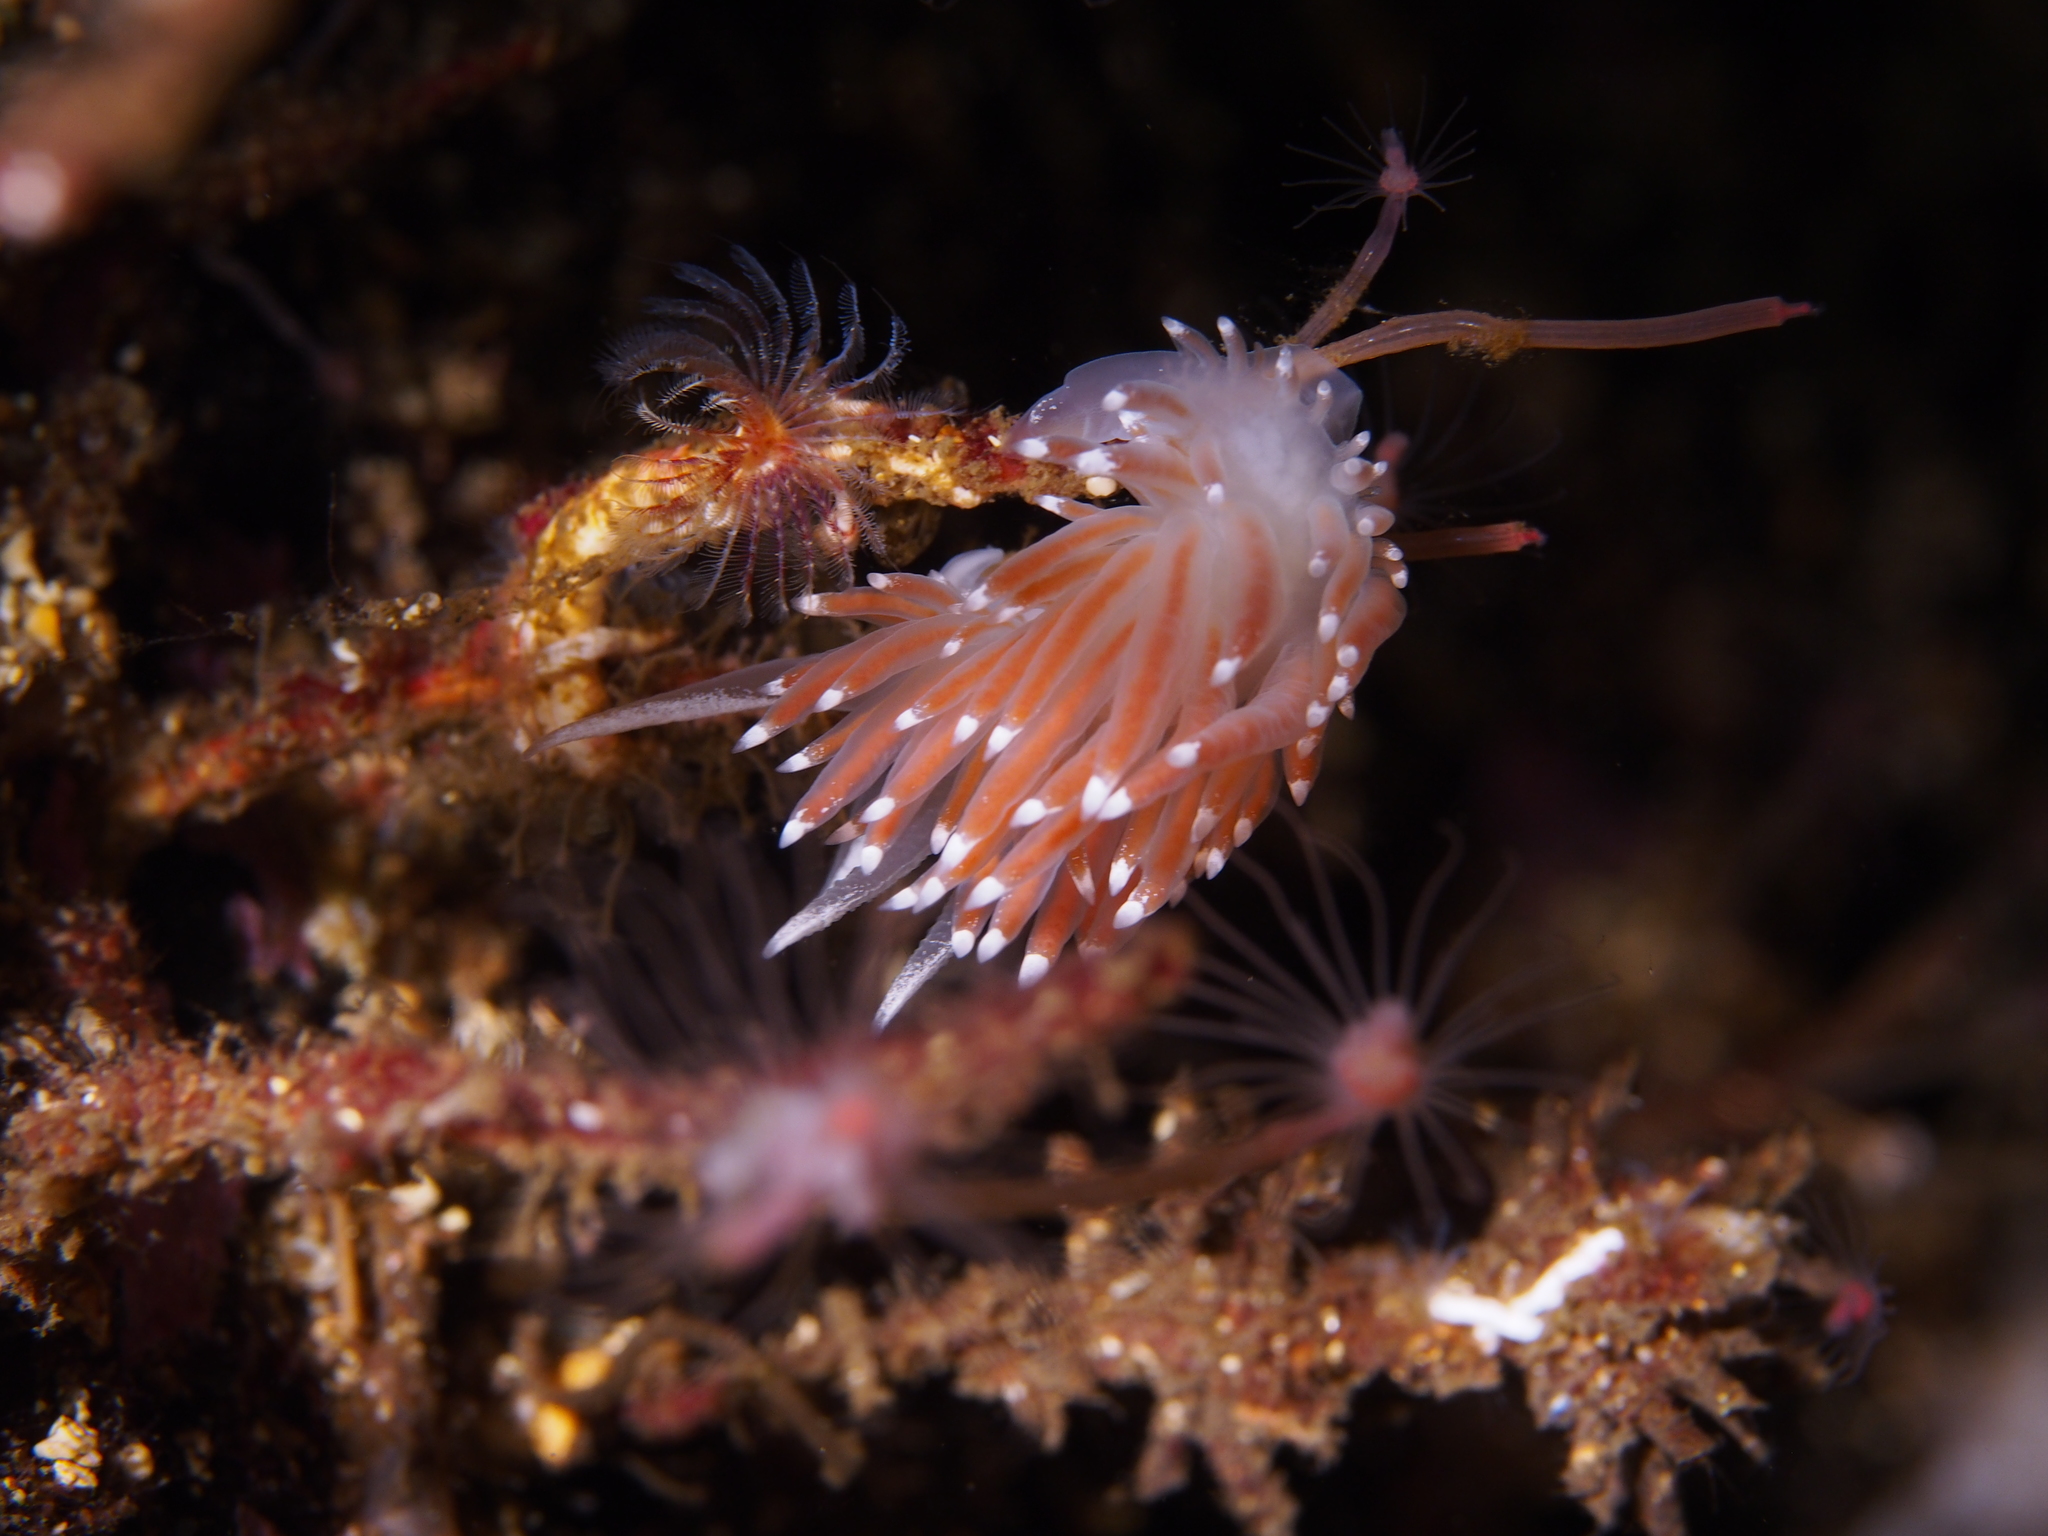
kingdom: Animalia
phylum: Mollusca
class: Gastropoda
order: Nudibranchia
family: Coryphellidae
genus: Coryphella
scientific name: Coryphella browni
